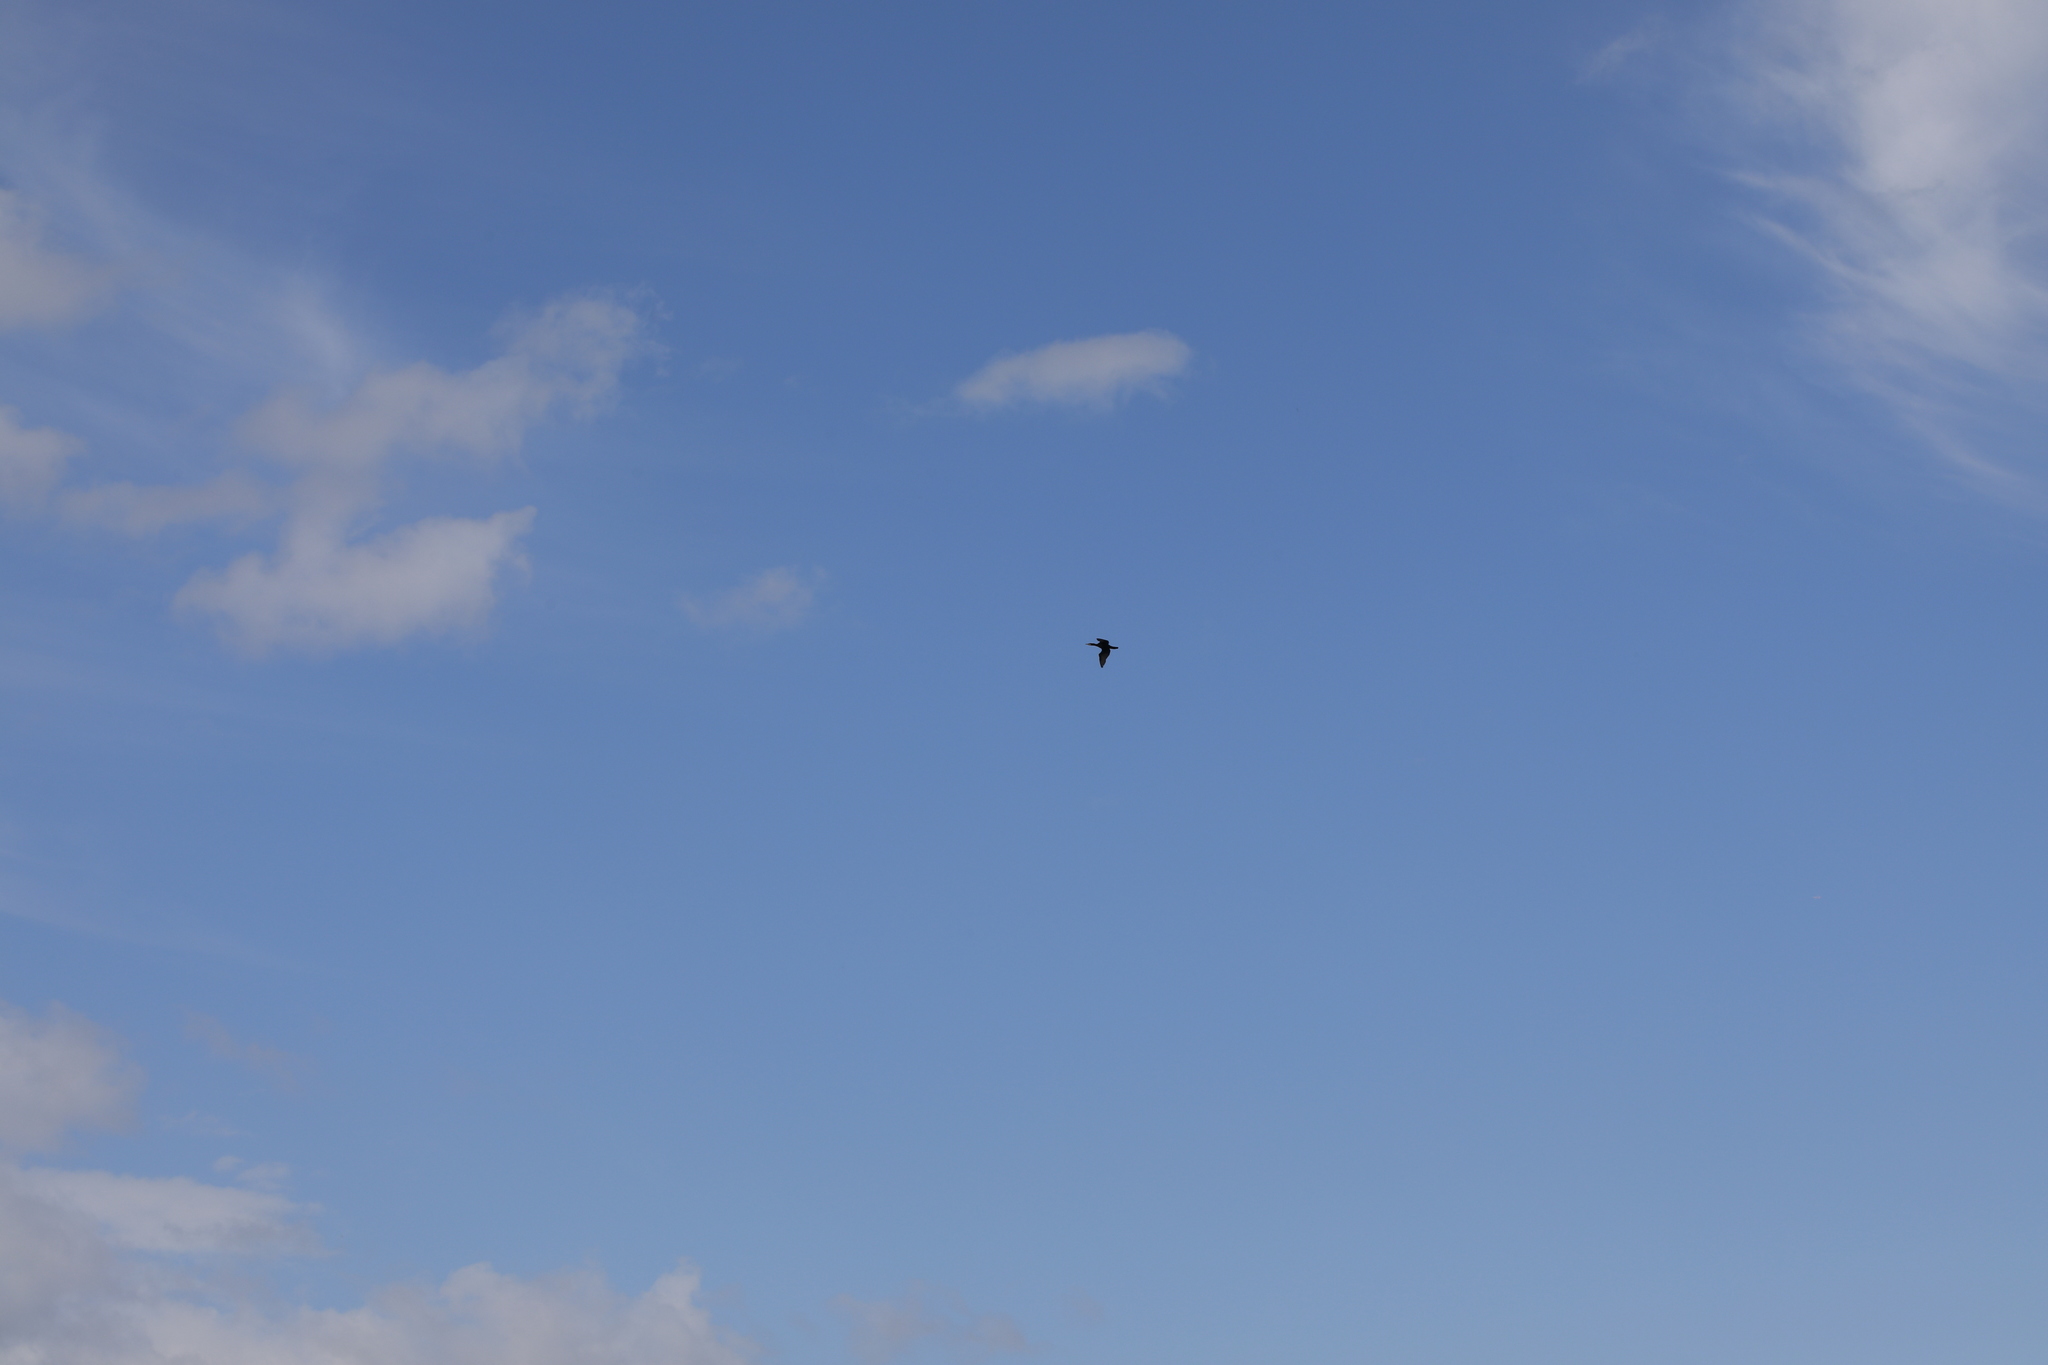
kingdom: Animalia
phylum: Chordata
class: Aves
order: Suliformes
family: Phalacrocoracidae
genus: Phalacrocorax
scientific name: Phalacrocorax carbo
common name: Great cormorant
